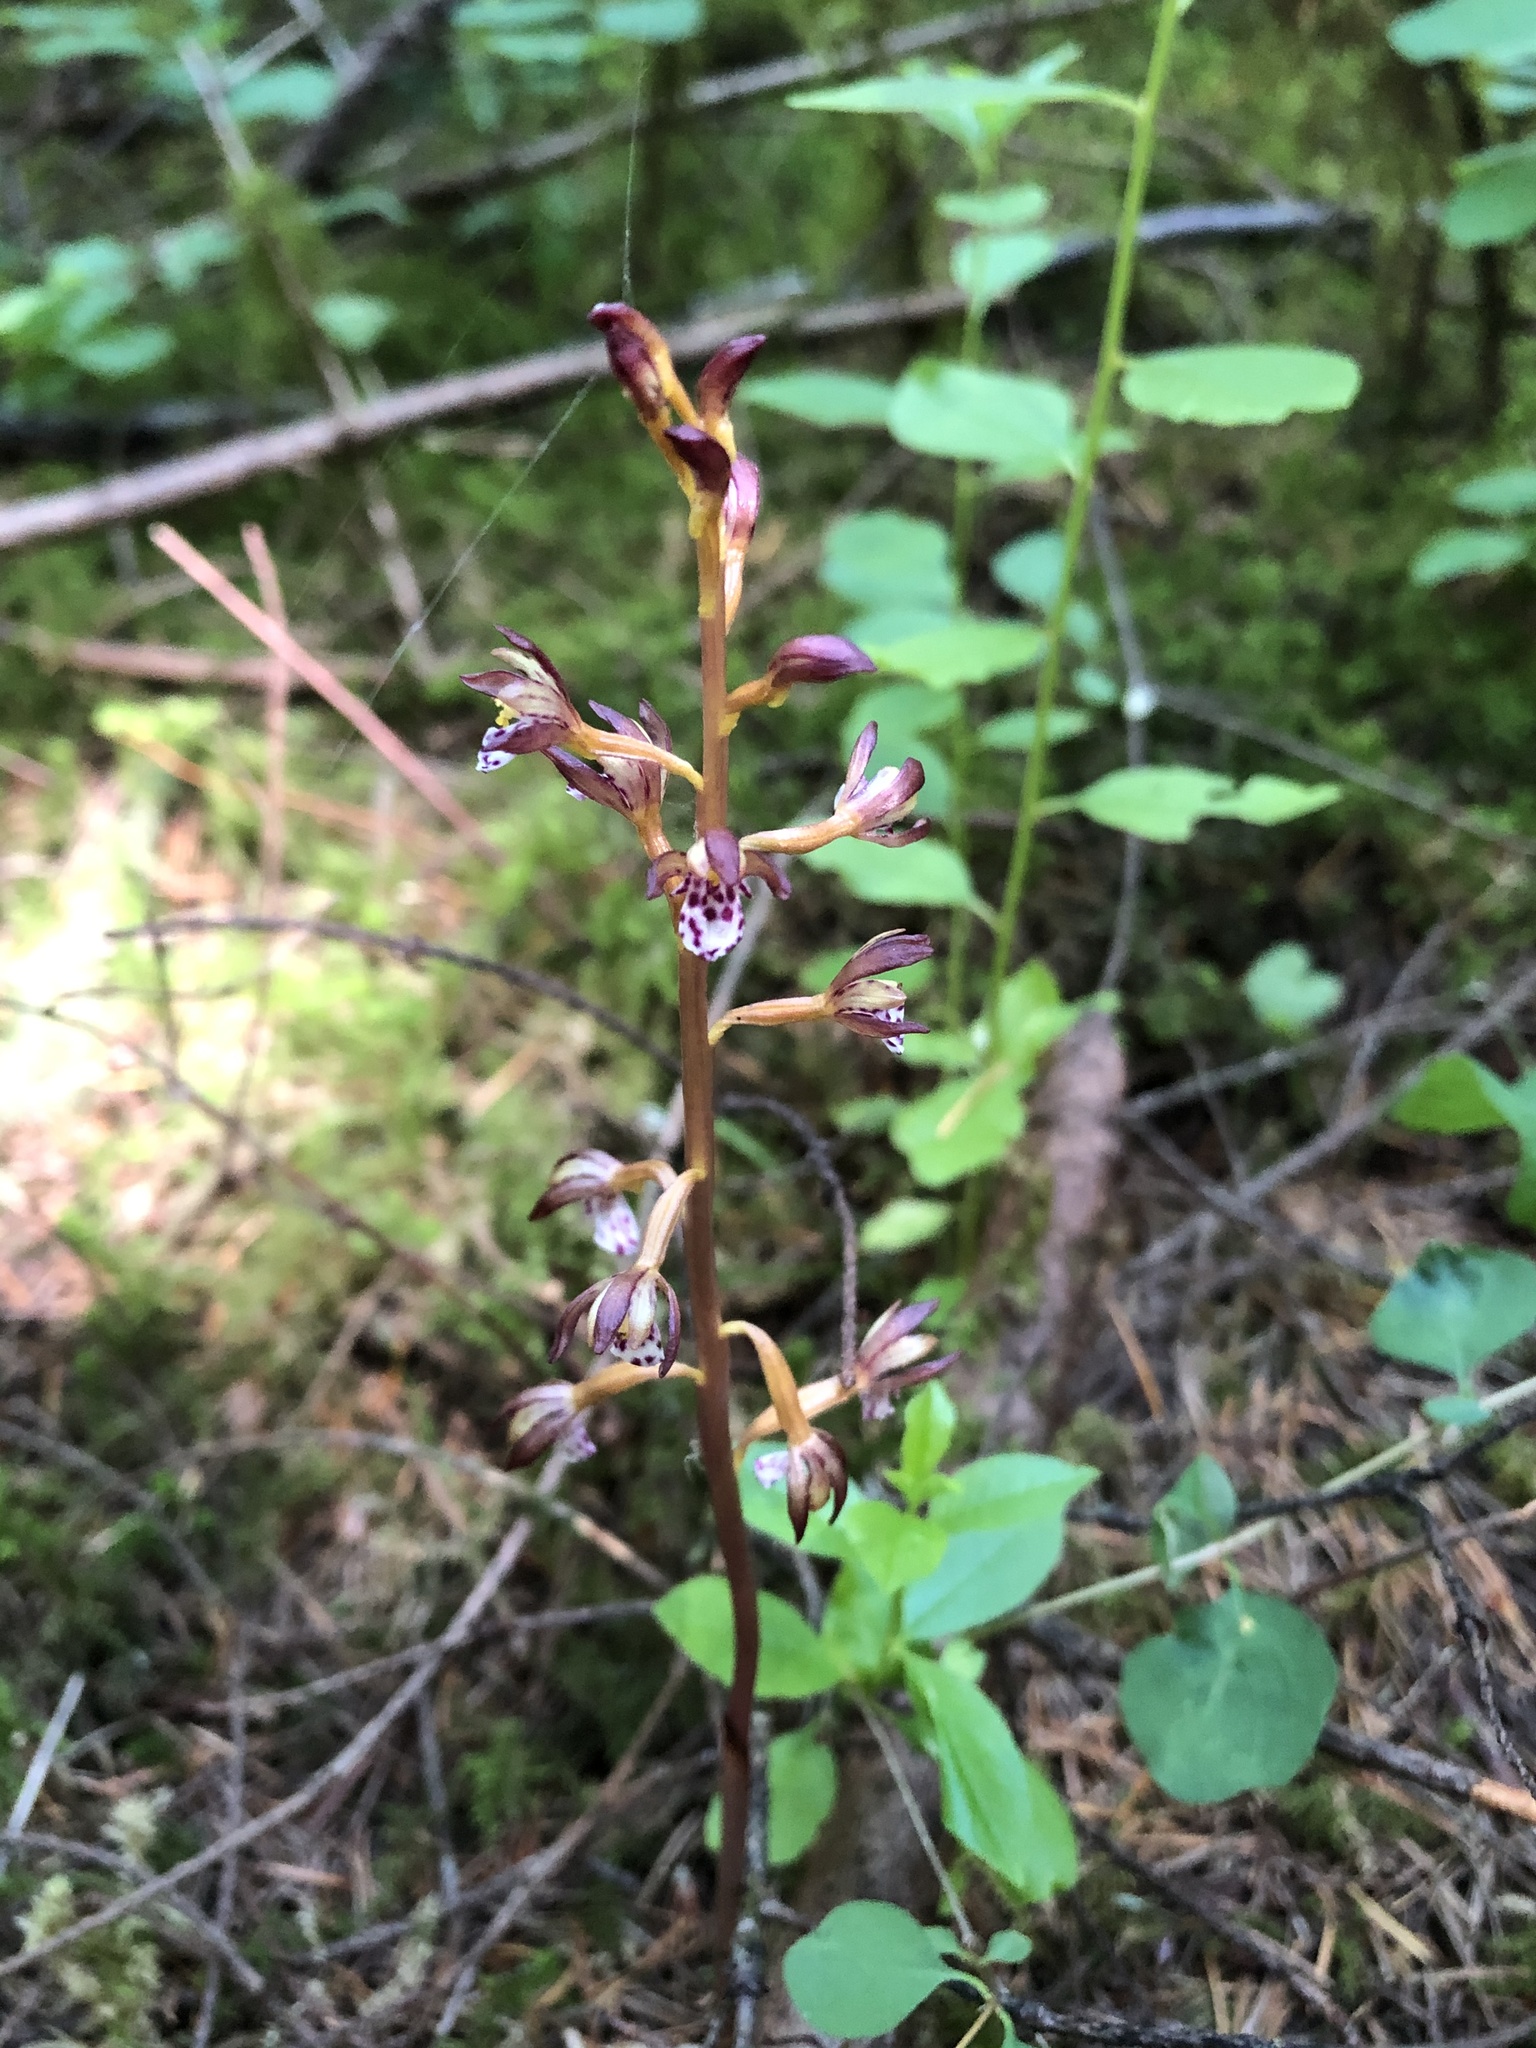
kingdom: Plantae
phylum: Tracheophyta
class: Liliopsida
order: Asparagales
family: Orchidaceae
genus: Corallorhiza
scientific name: Corallorhiza maculata
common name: Spotted coralroot
